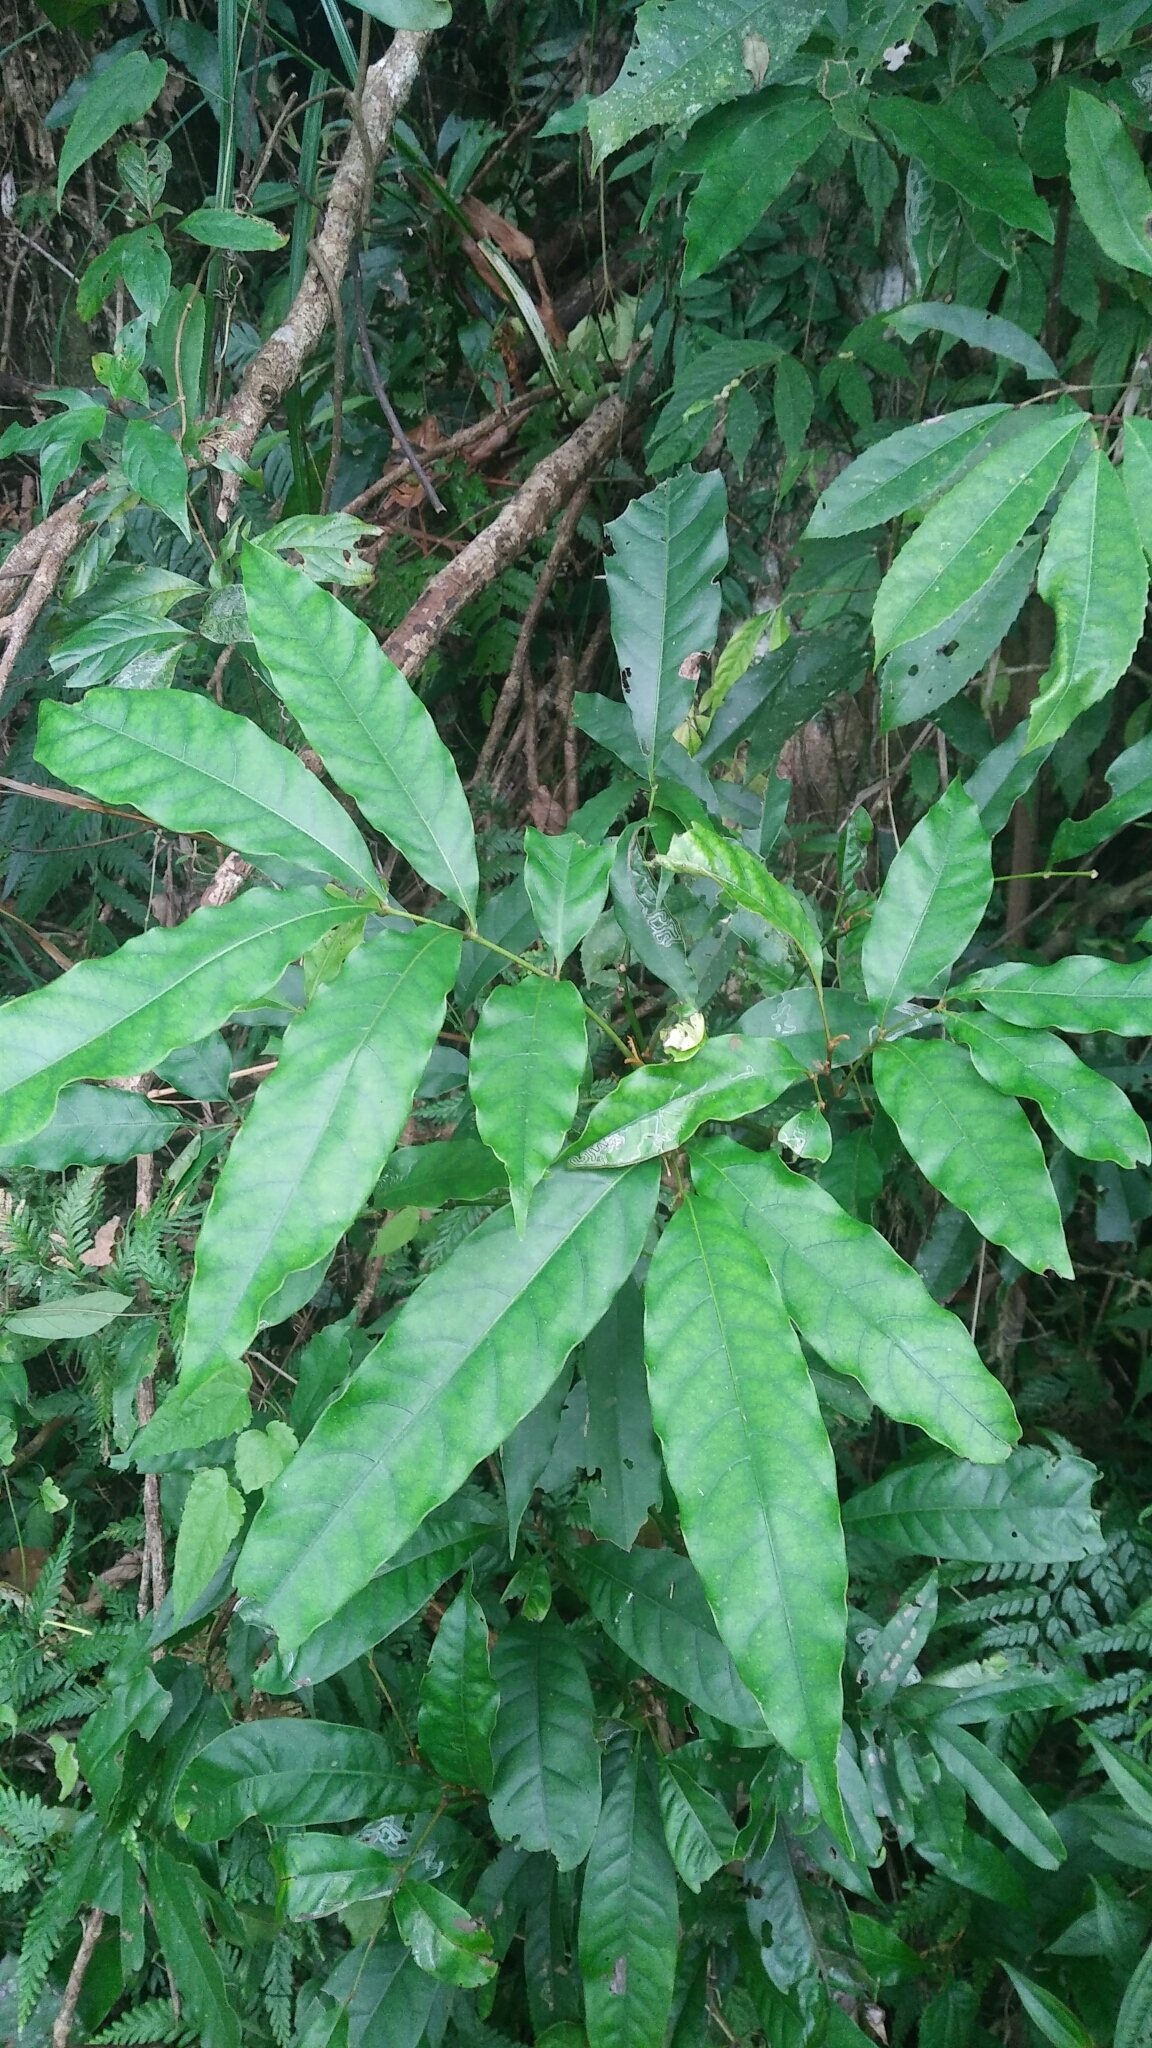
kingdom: Plantae
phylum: Tracheophyta
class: Magnoliopsida
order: Fagales
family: Juglandaceae
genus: Engelhardia
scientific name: Engelhardia roxburghiana
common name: Golden malay beam
